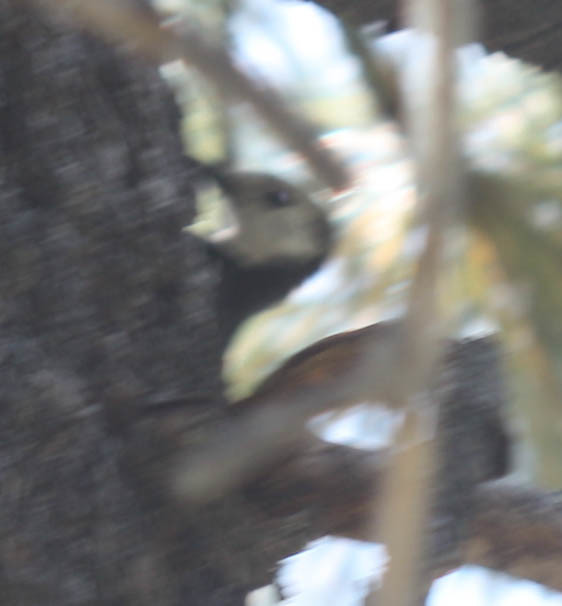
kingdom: Animalia
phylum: Chordata
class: Aves
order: Piciformes
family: Picidae
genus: Leuconotopicus
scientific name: Leuconotopicus albolarvatus
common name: White-headed woodpecker
